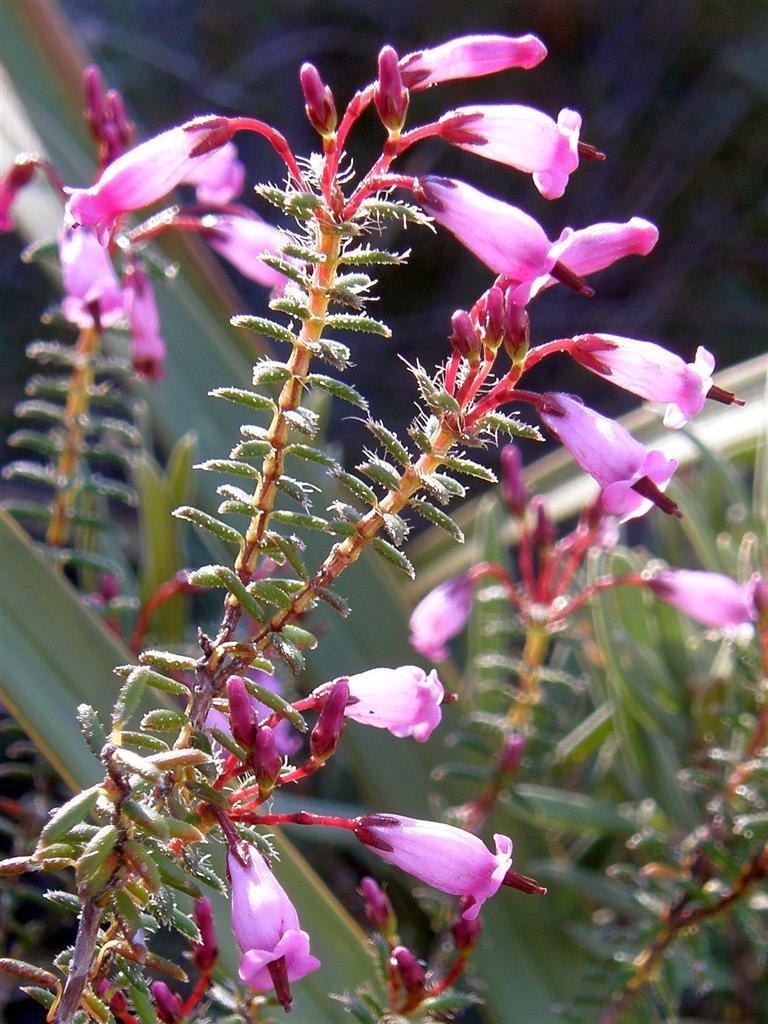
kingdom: Plantae
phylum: Tracheophyta
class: Magnoliopsida
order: Ericales
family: Ericaceae
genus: Erica
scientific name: Erica embothriifolia
